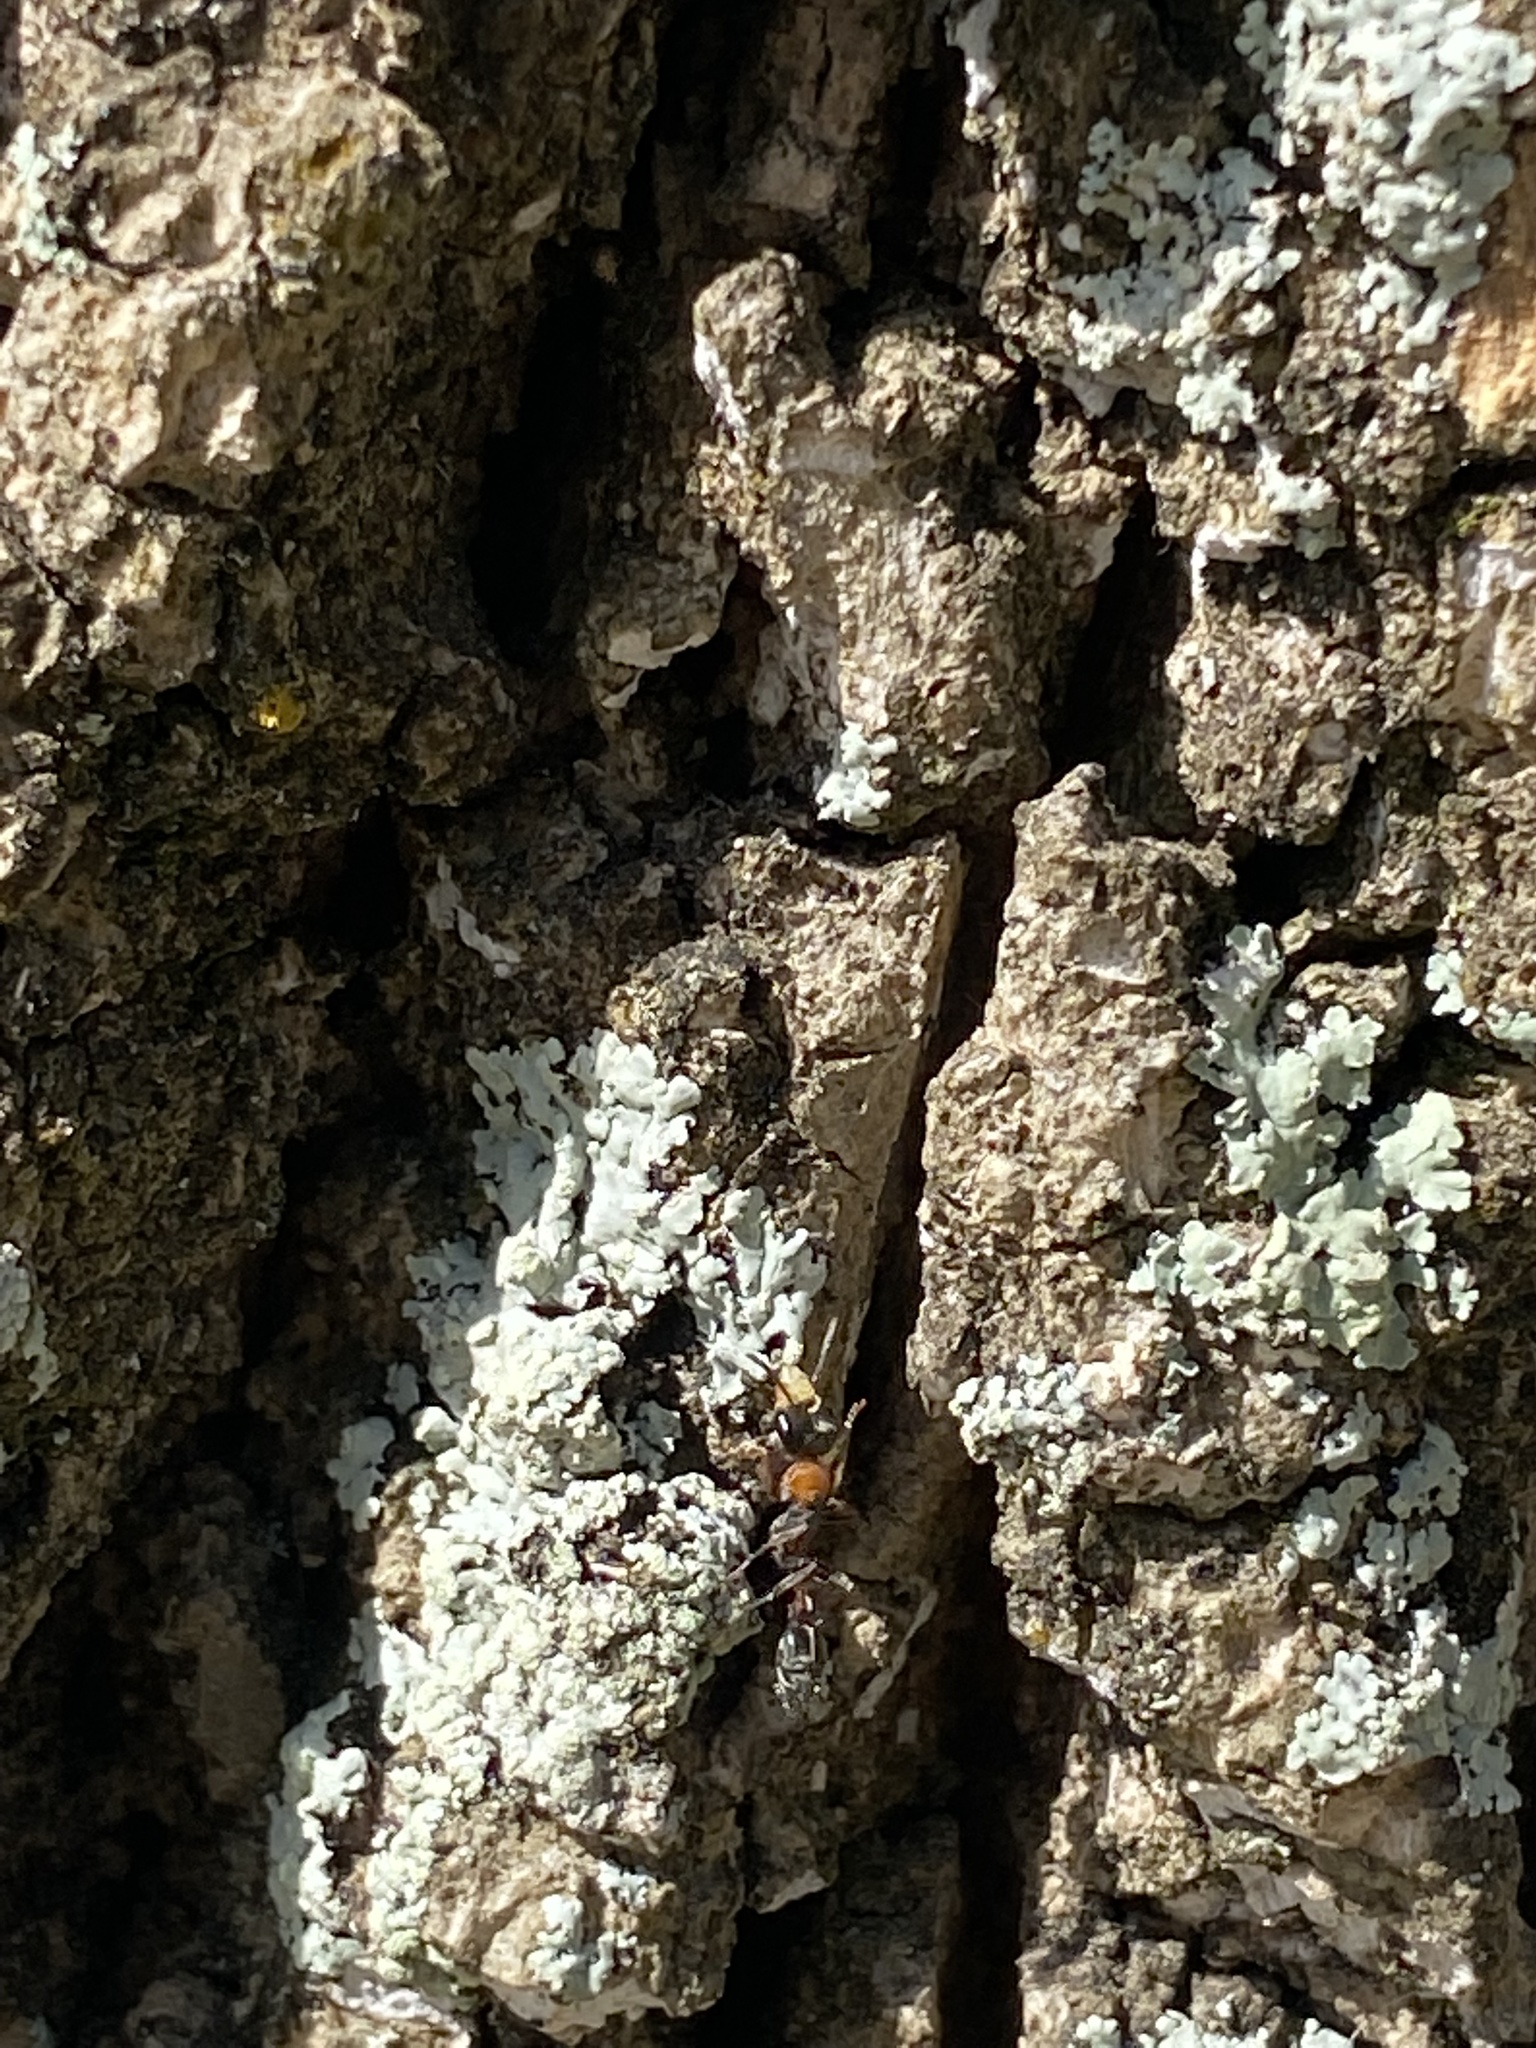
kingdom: Animalia
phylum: Arthropoda
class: Insecta
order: Hymenoptera
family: Formicidae
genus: Pseudomyrmex
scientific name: Pseudomyrmex gracilis
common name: Graceful twig ant
